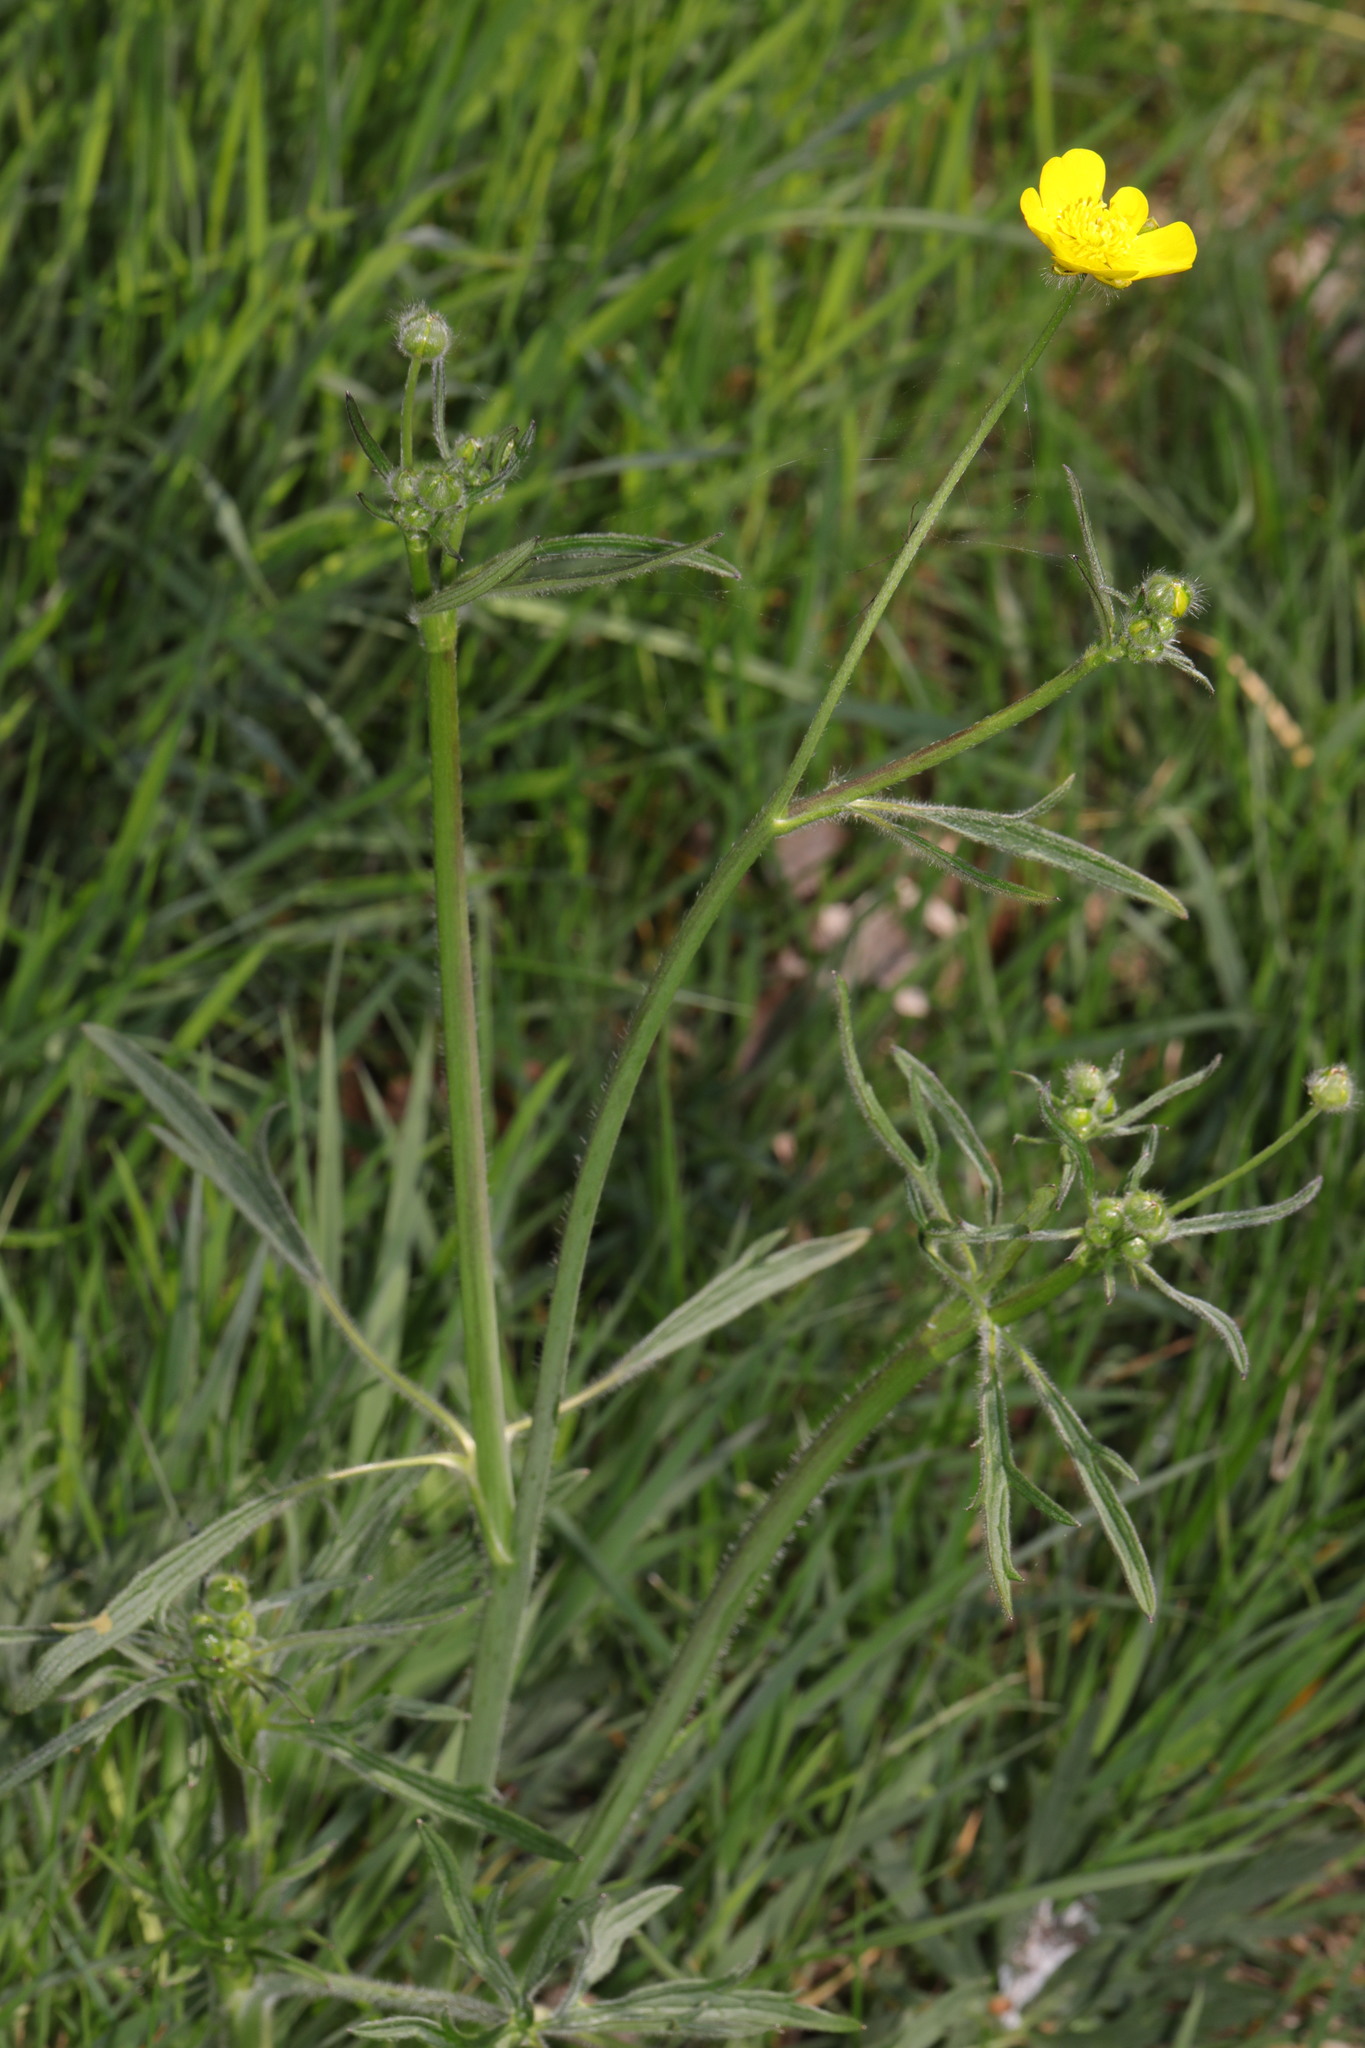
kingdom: Plantae
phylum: Tracheophyta
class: Magnoliopsida
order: Ranunculales
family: Ranunculaceae
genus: Ranunculus
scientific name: Ranunculus acris
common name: Meadow buttercup
